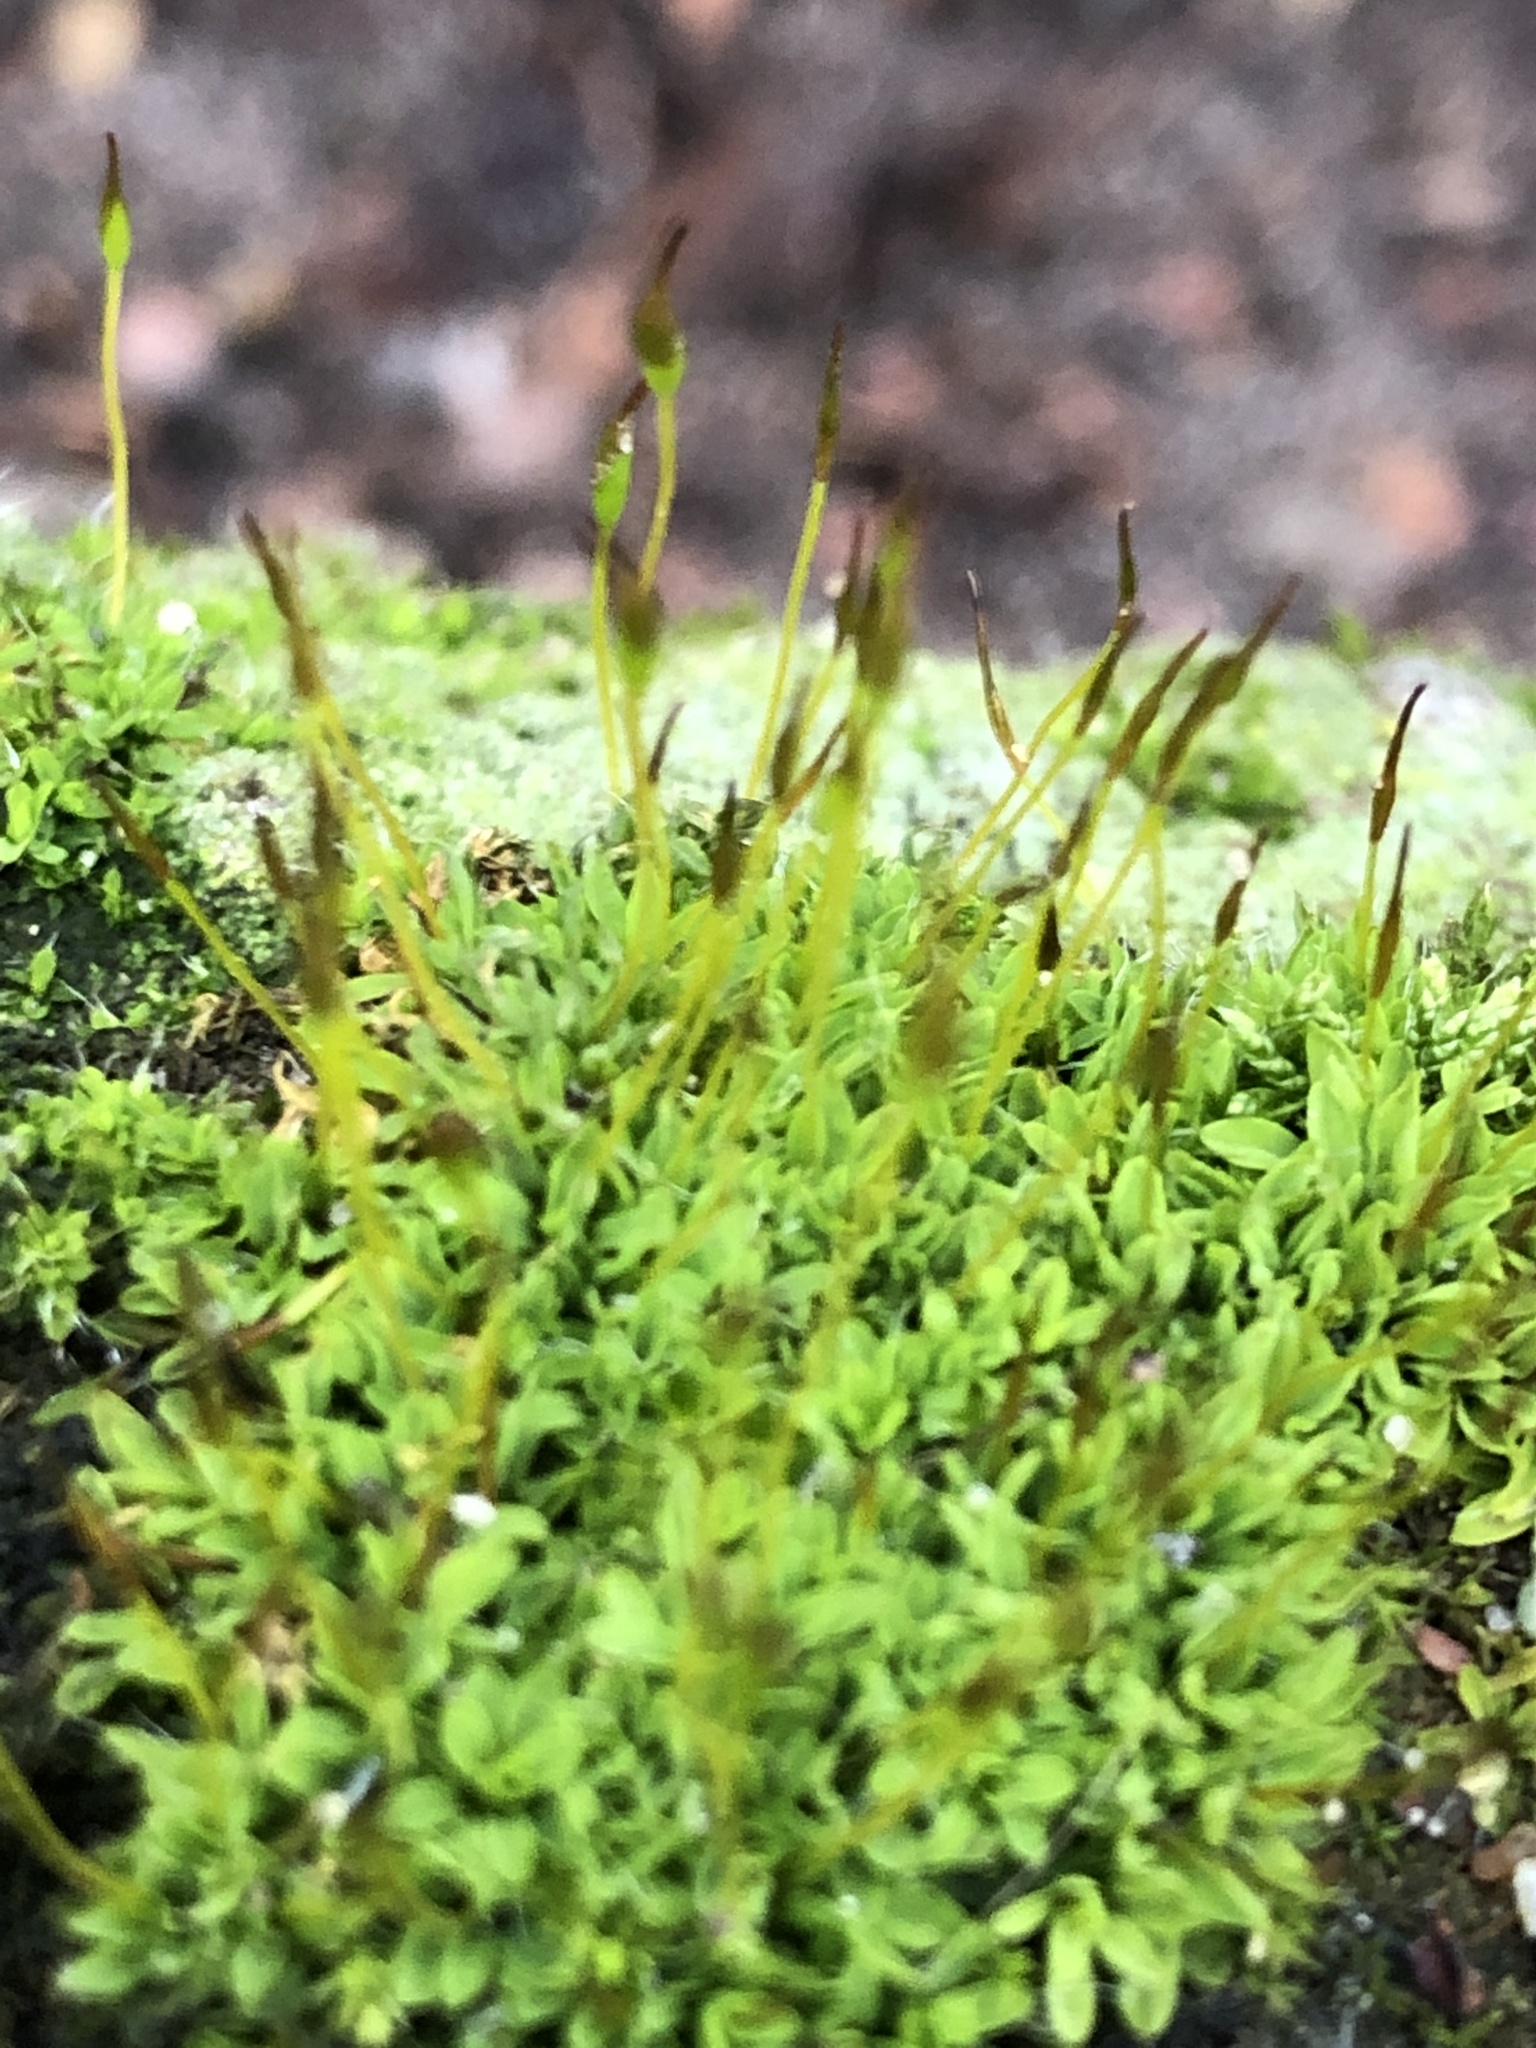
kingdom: Plantae
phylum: Bryophyta
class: Bryopsida
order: Pottiales
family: Pottiaceae
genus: Tortula
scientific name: Tortula muralis
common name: Wall screw-moss
